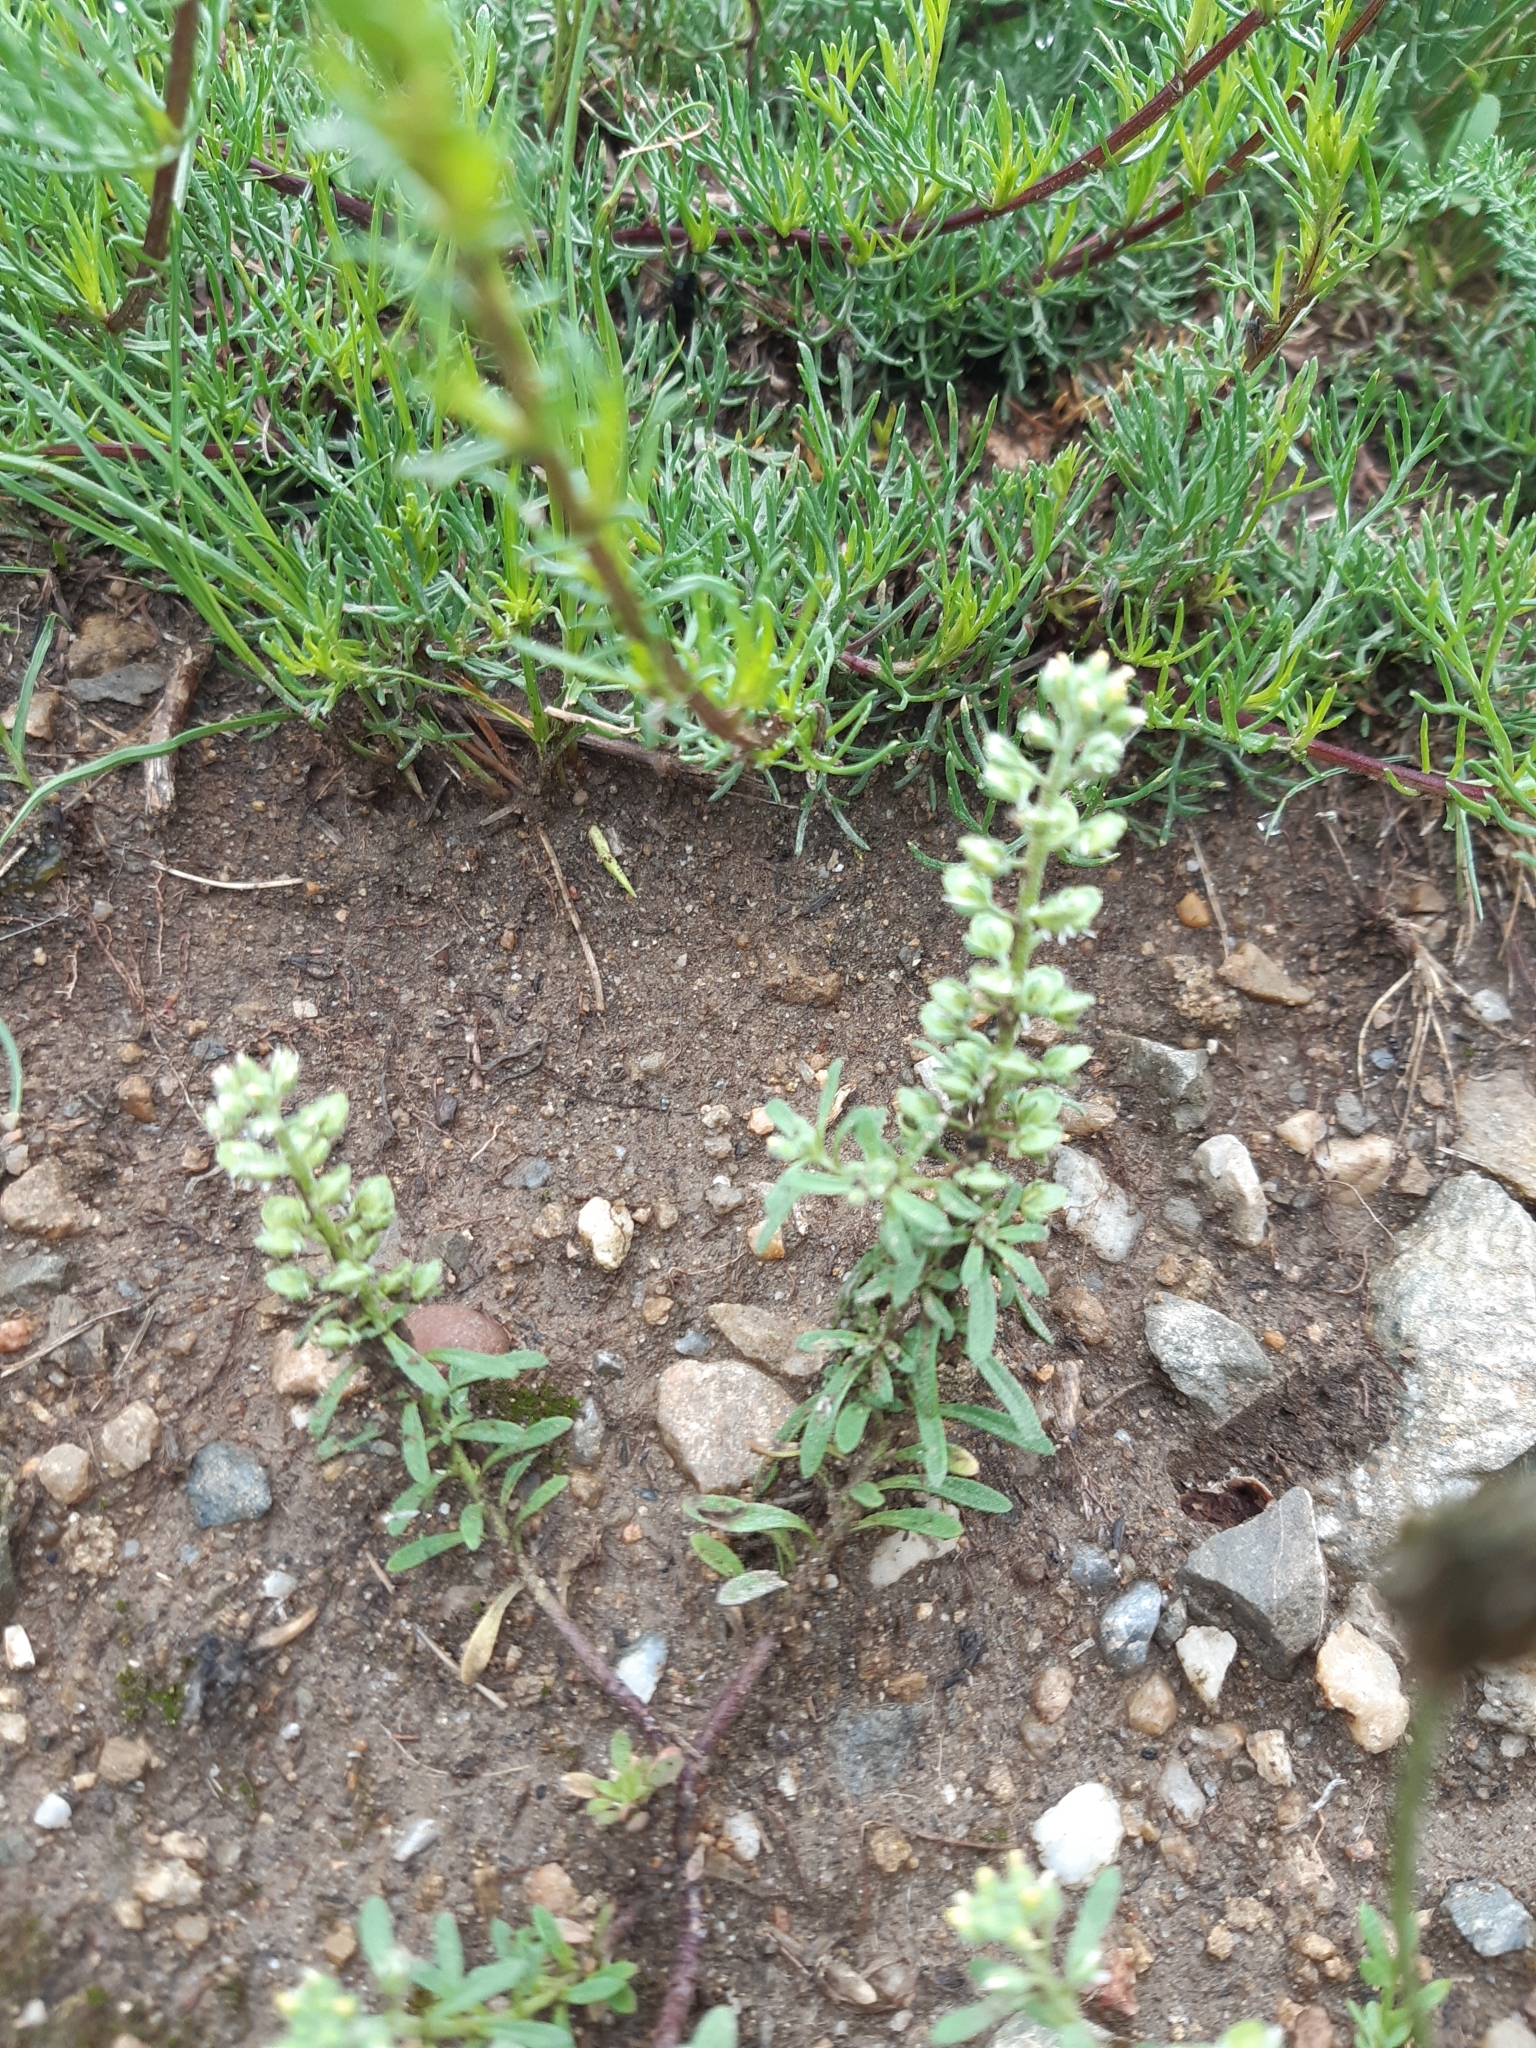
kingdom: Plantae
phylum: Tracheophyta
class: Magnoliopsida
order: Brassicales
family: Brassicaceae
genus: Alyssum
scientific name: Alyssum alyssoides
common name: Small alison
